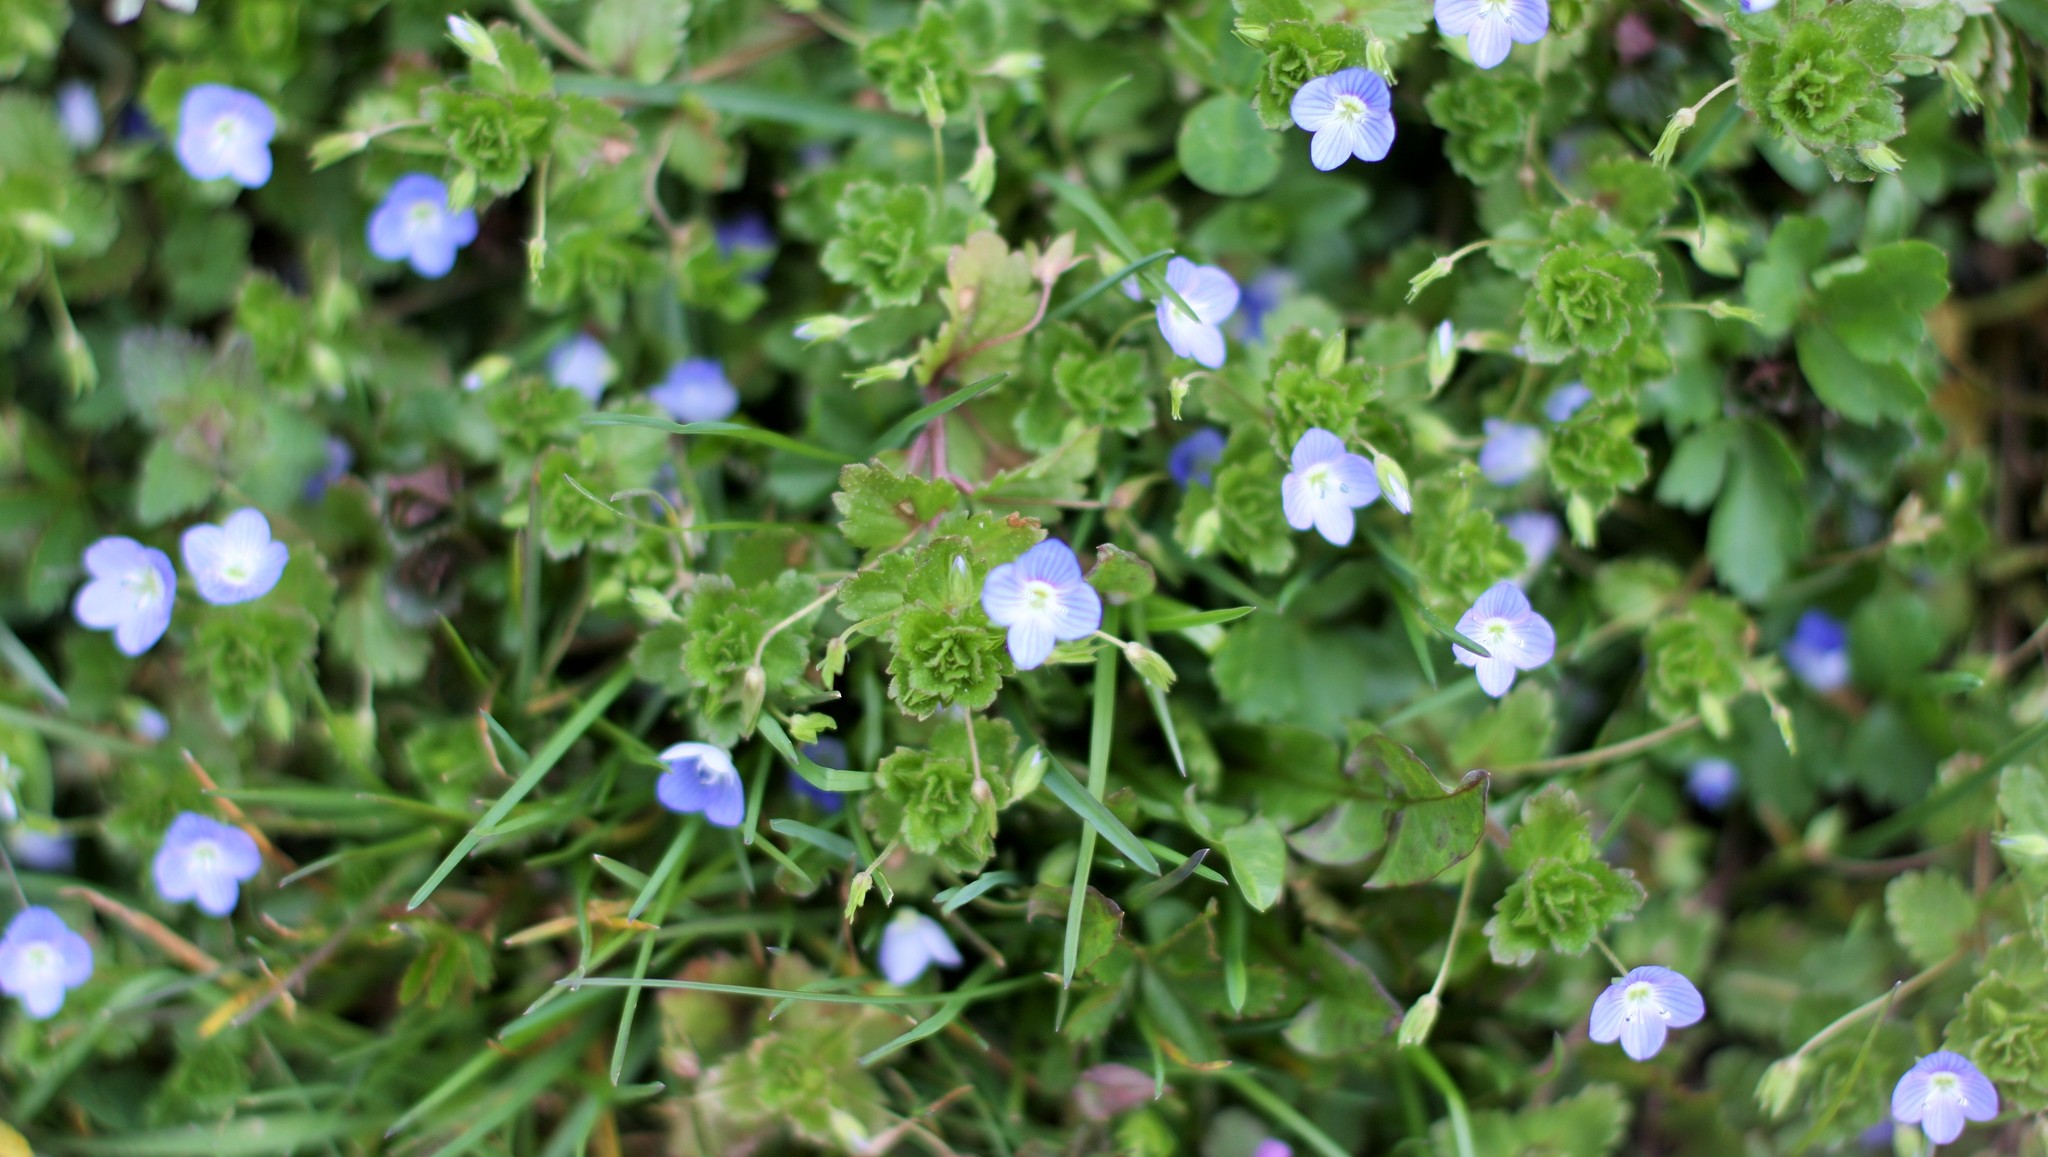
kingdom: Plantae
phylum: Tracheophyta
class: Magnoliopsida
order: Lamiales
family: Plantaginaceae
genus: Veronica
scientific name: Veronica persica
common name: Common field-speedwell
